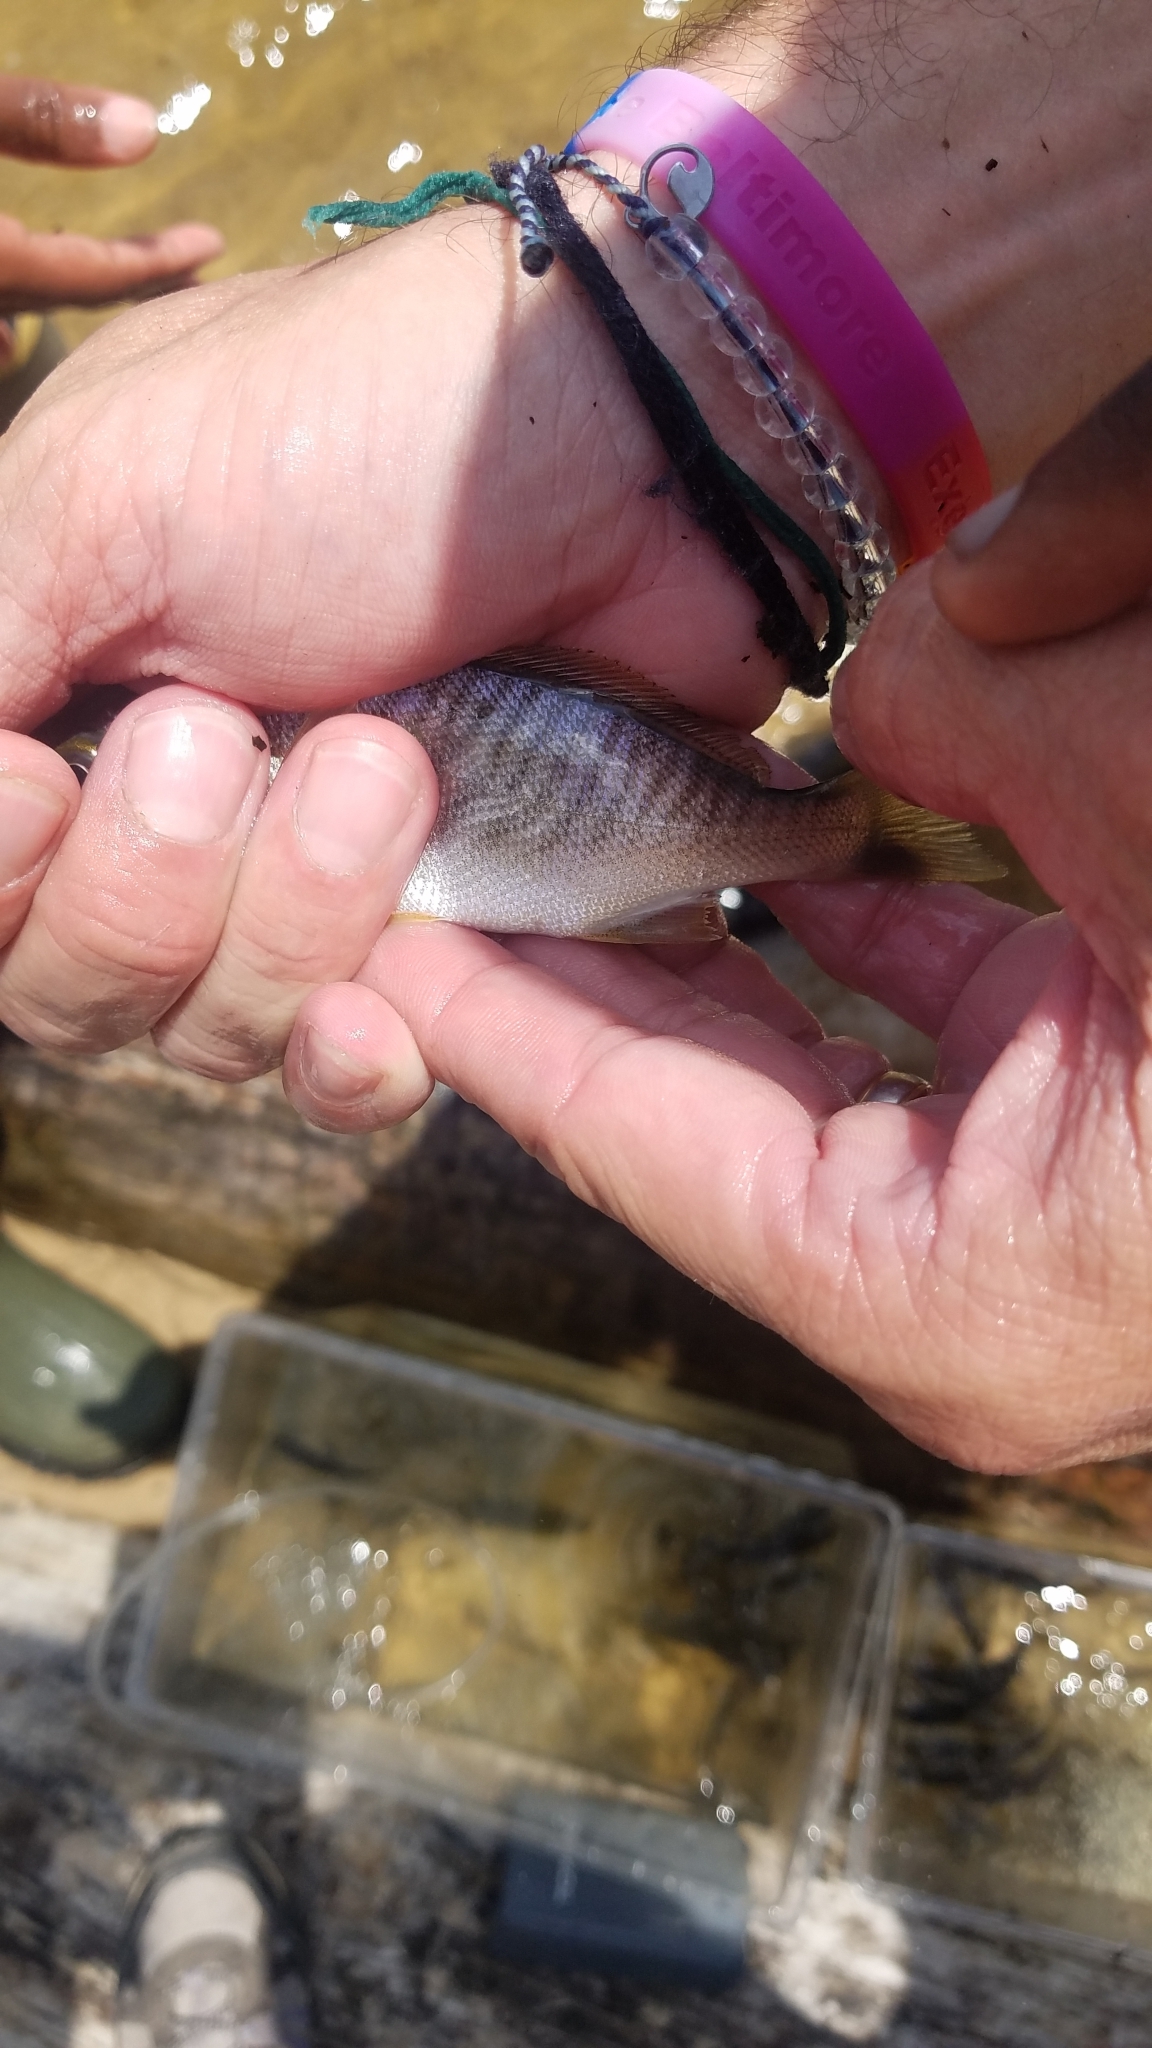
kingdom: Animalia
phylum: Chordata
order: Perciformes
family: Sciaenidae
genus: Leiostomus
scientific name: Leiostomus xanthurus
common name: Spot
